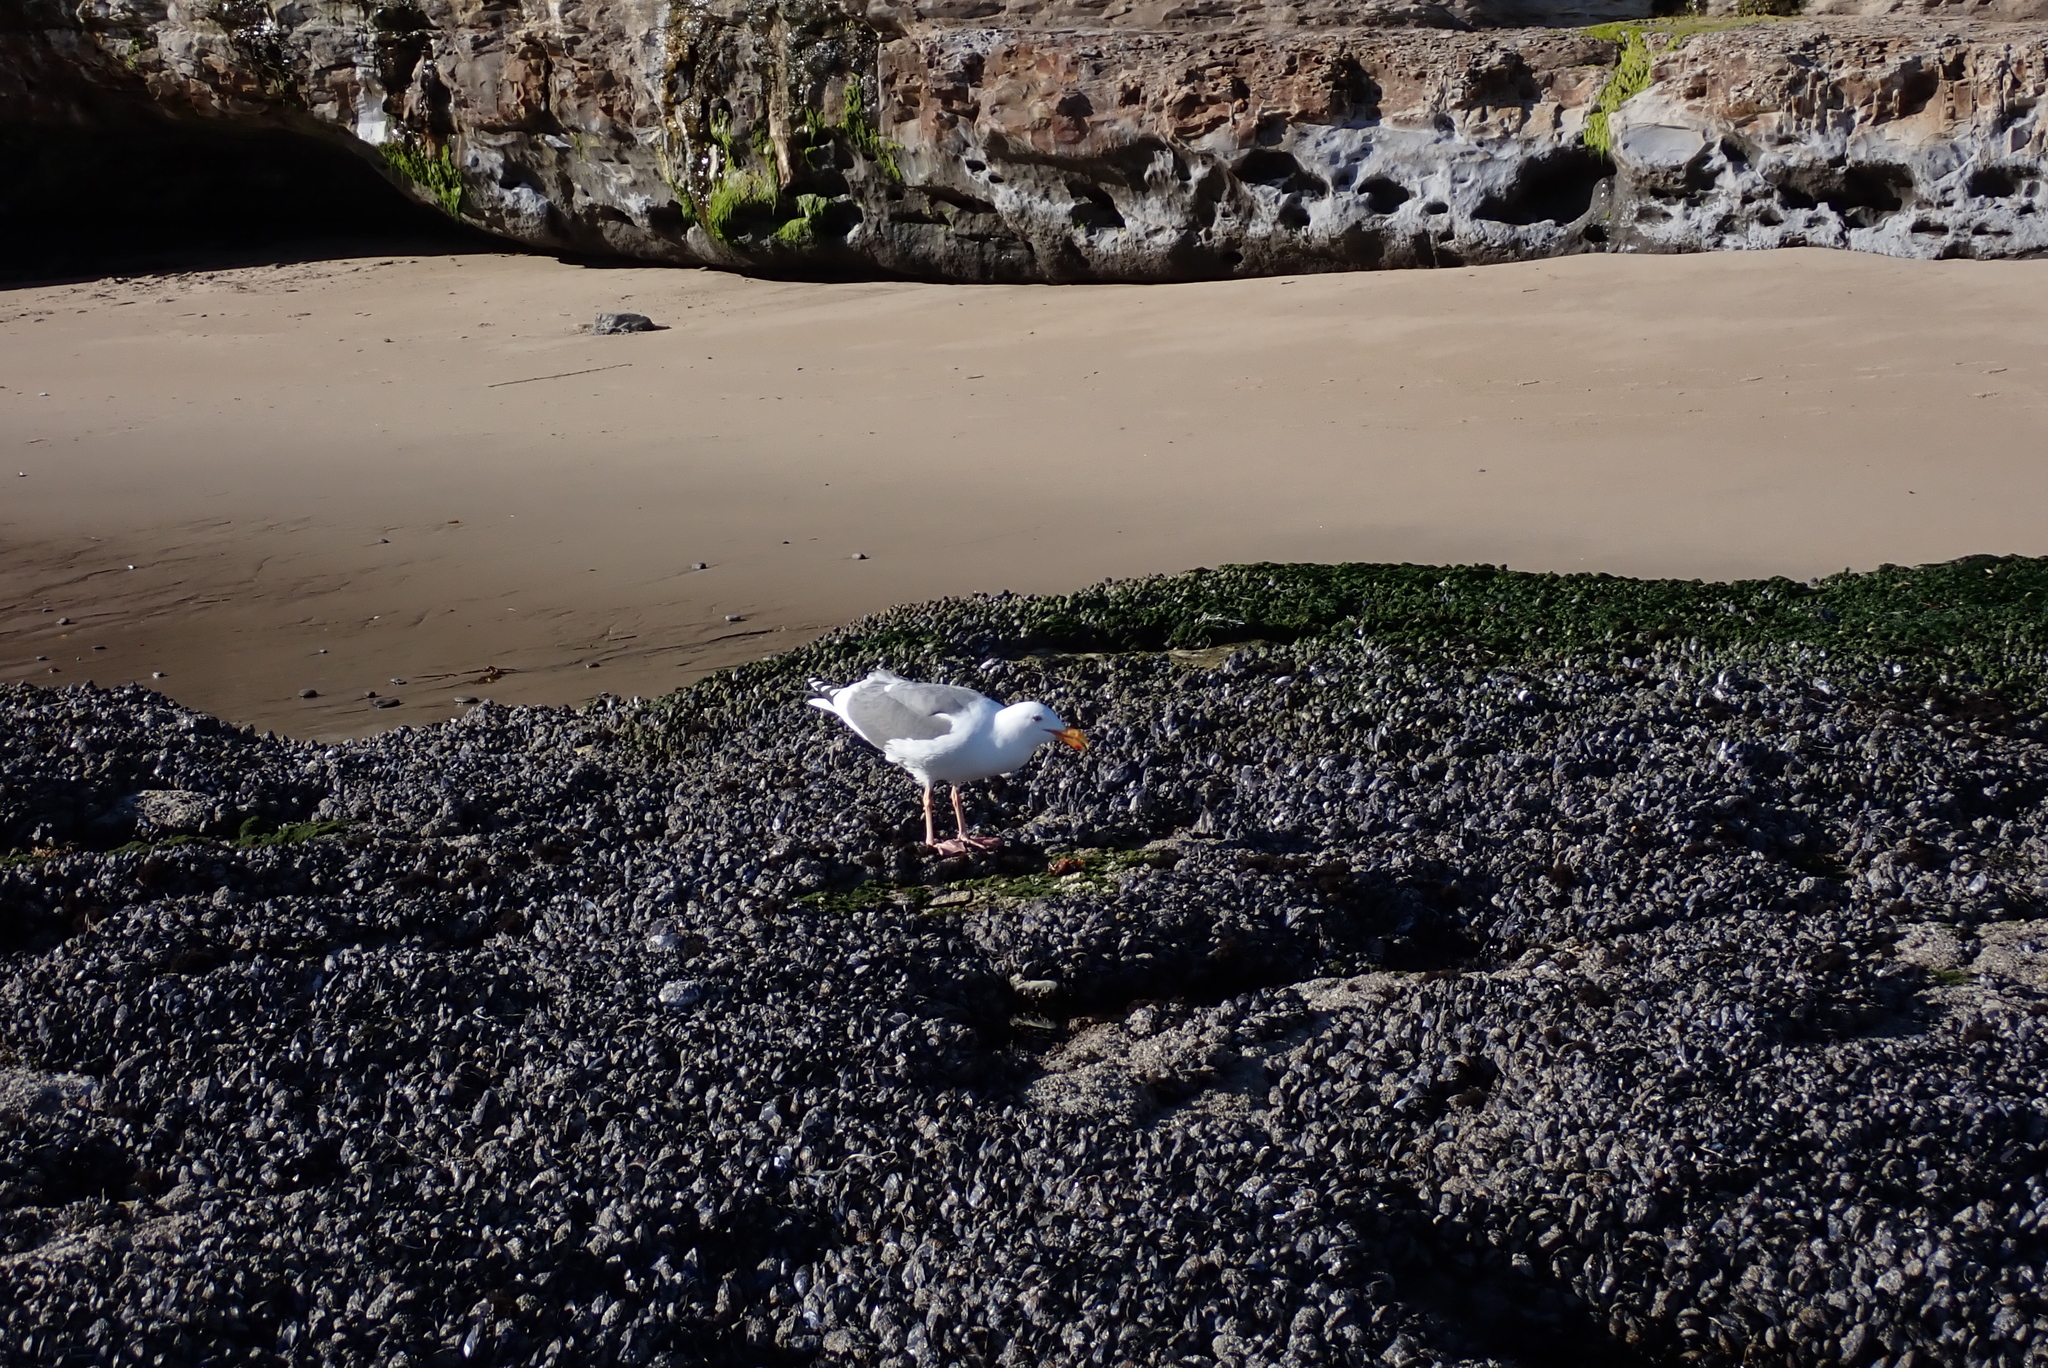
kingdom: Animalia
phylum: Chordata
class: Aves
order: Charadriiformes
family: Laridae
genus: Larus
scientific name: Larus occidentalis
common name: Western gull
